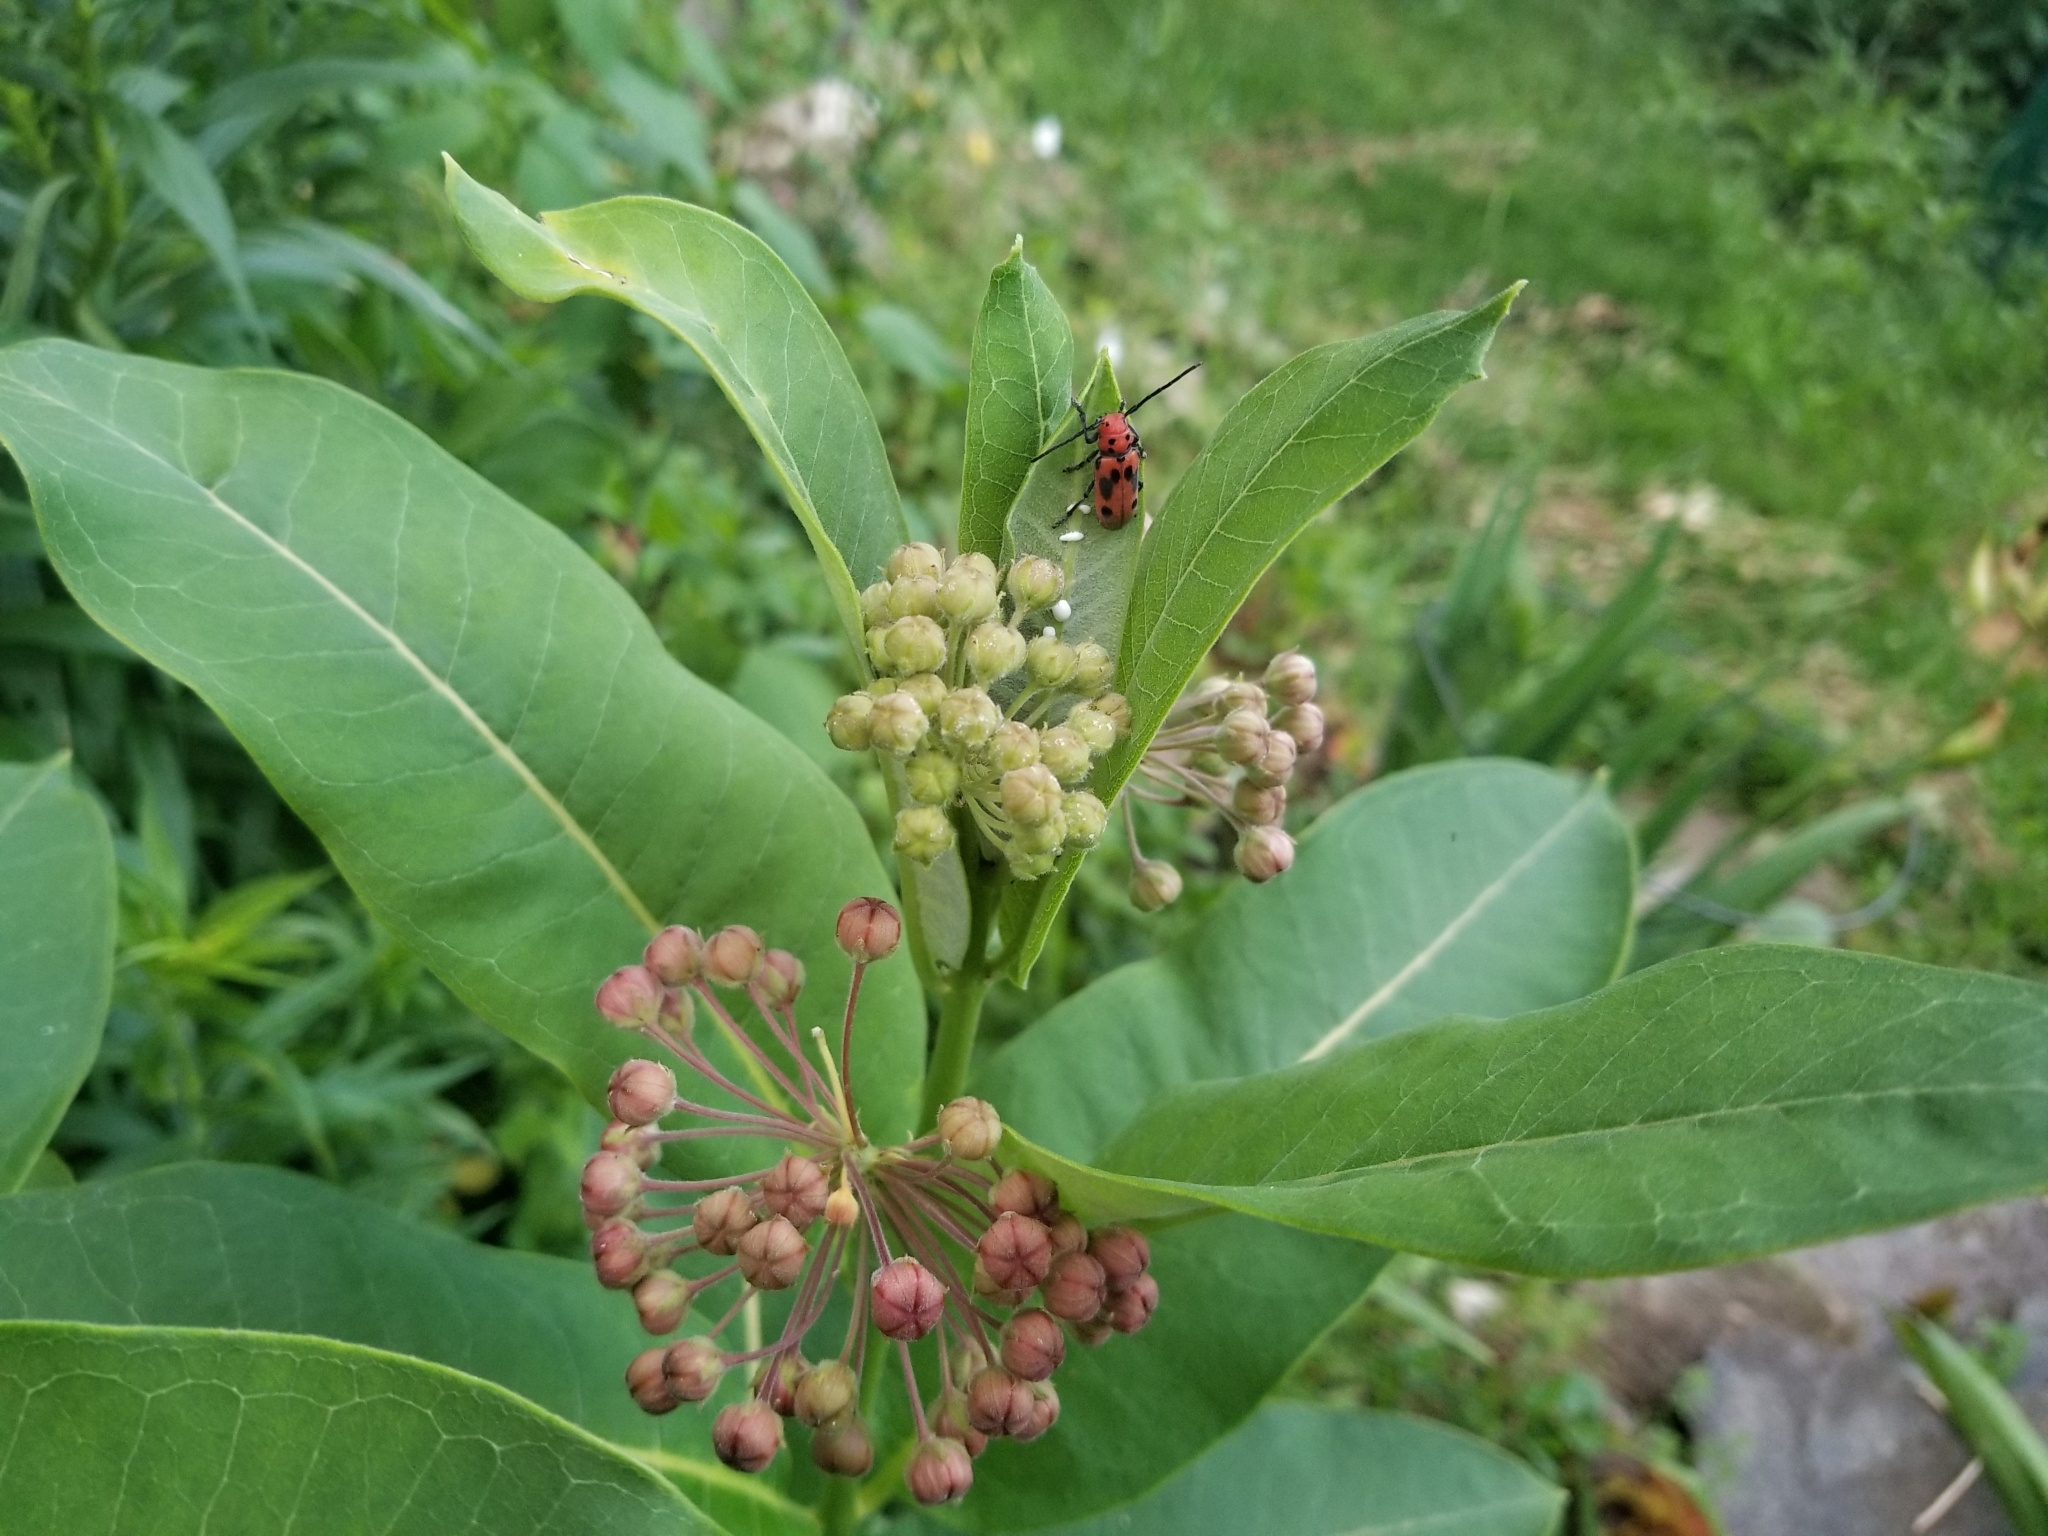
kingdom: Plantae
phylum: Tracheophyta
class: Magnoliopsida
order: Gentianales
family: Apocynaceae
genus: Asclepias
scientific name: Asclepias syriaca
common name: Common milkweed
